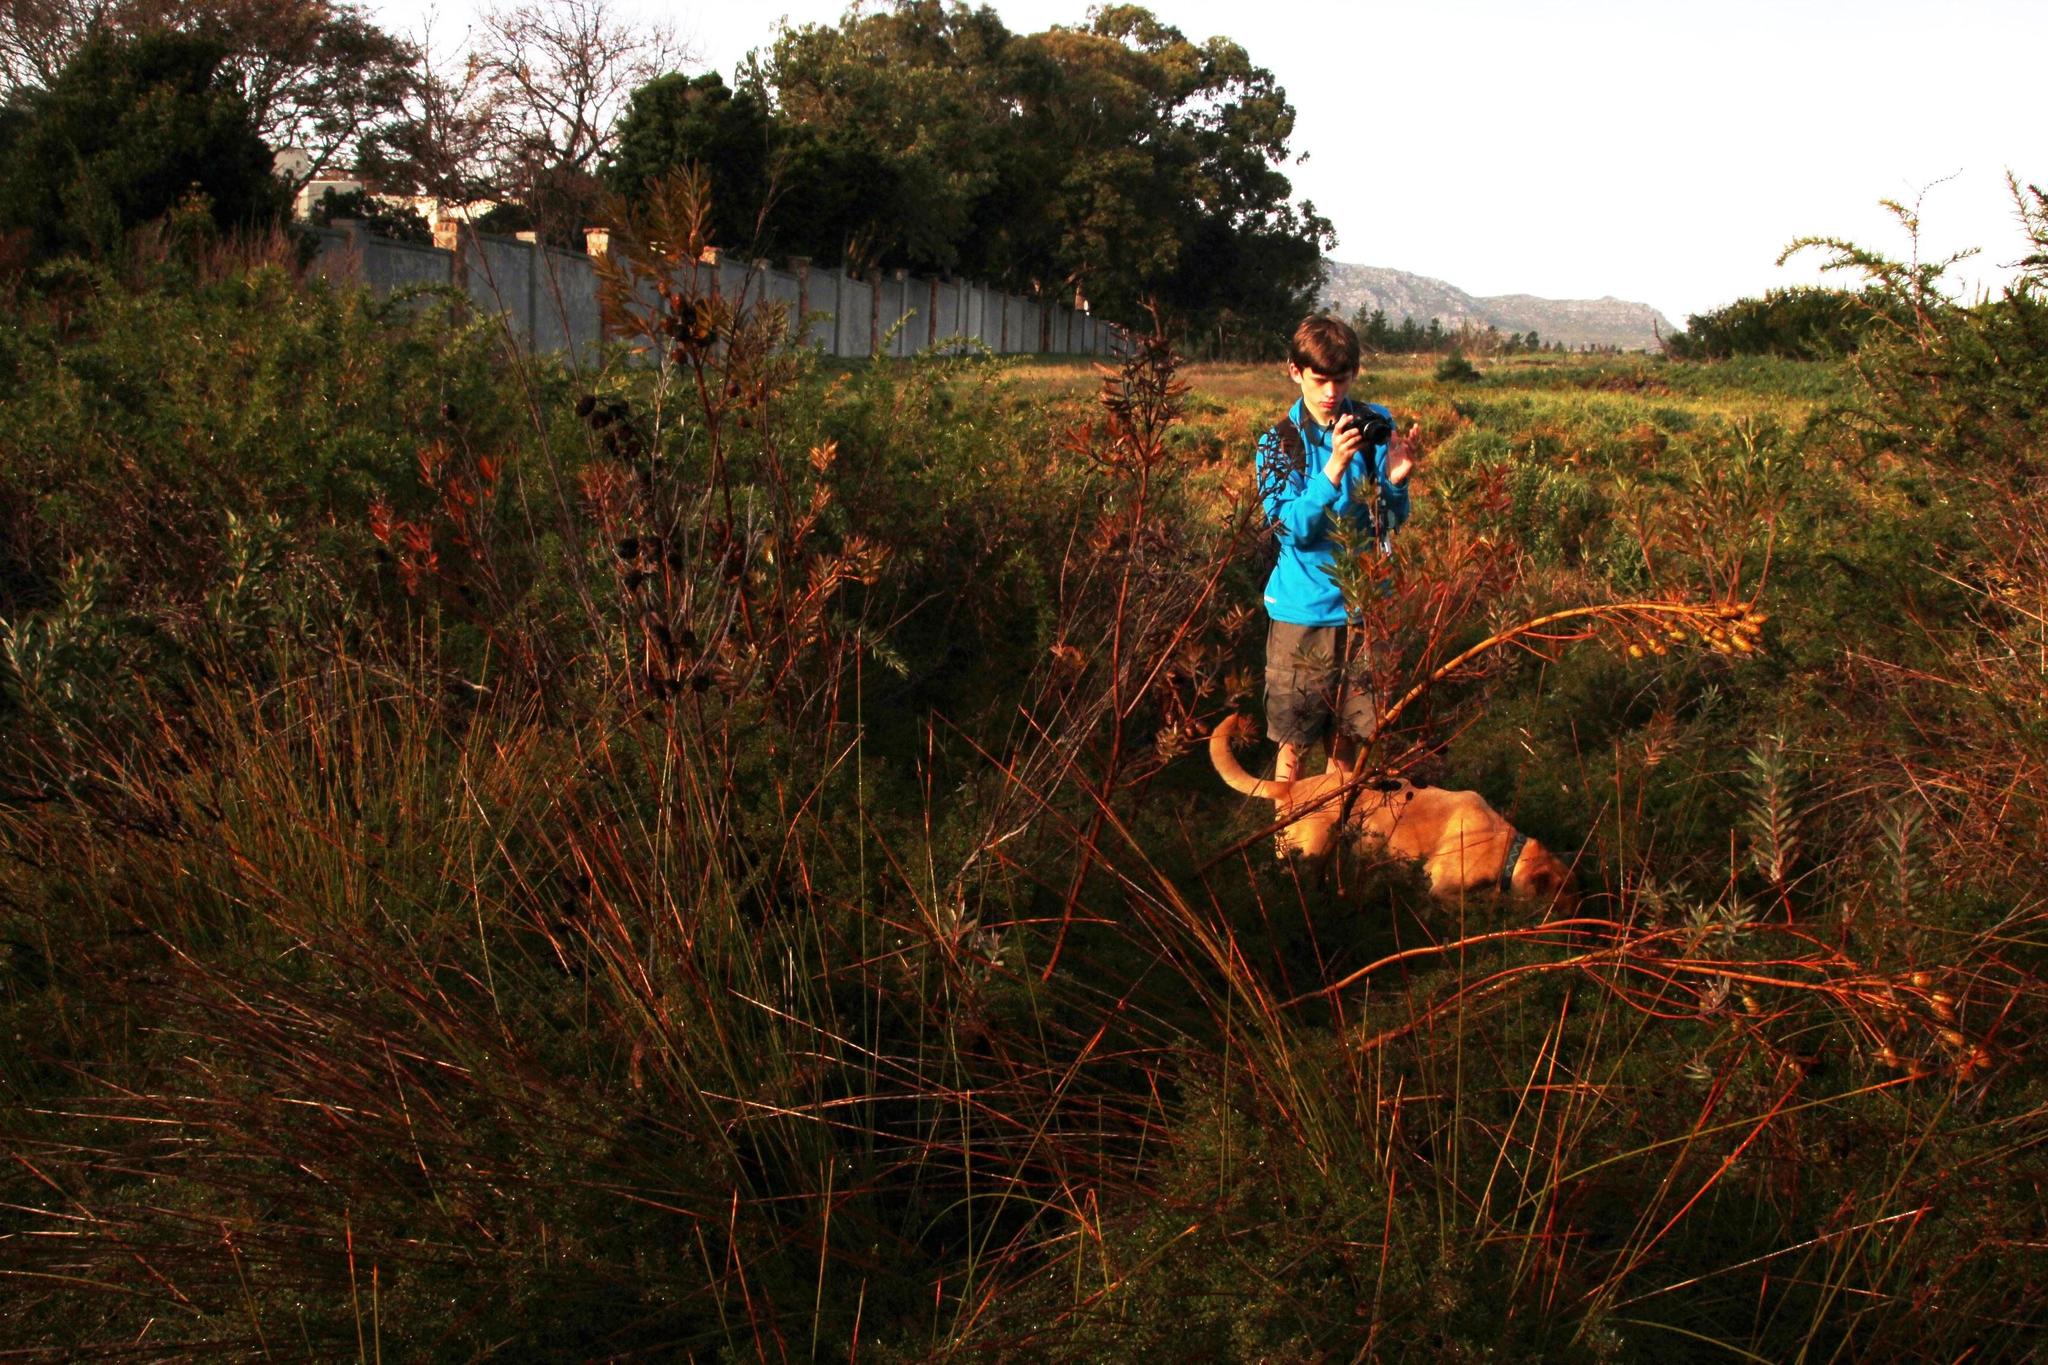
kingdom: Plantae
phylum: Tracheophyta
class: Magnoliopsida
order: Proteales
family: Proteaceae
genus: Leucadendron
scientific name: Leucadendron macowanii
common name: Acacia-leaf conebush
